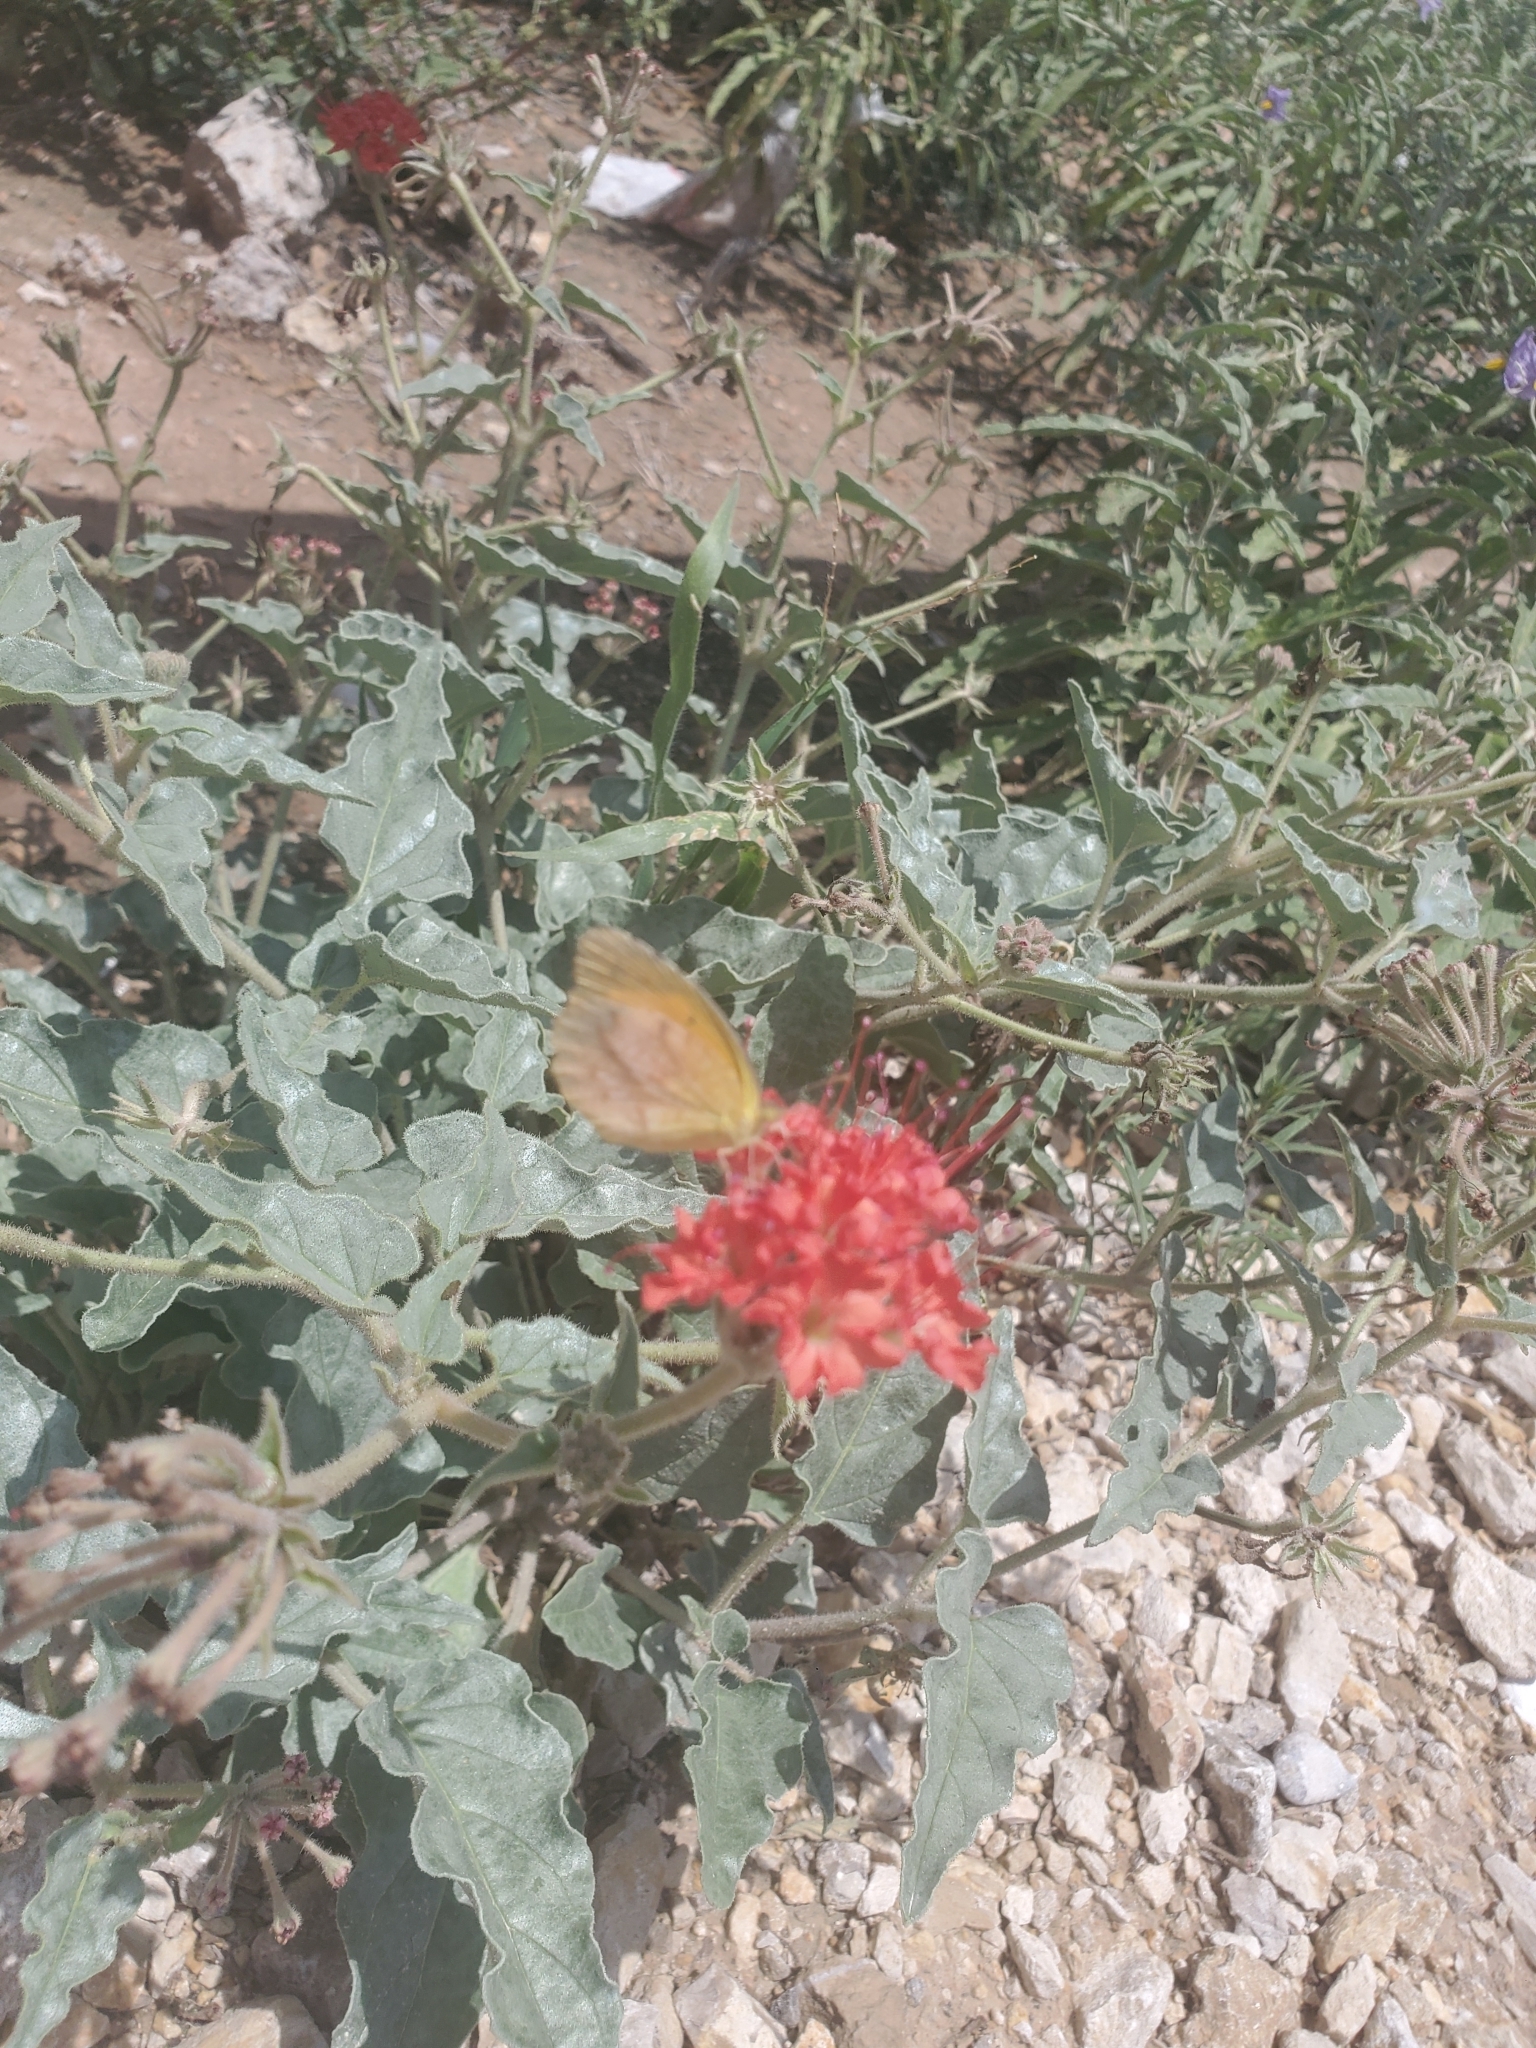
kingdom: Plantae
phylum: Tracheophyta
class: Magnoliopsida
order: Caryophyllales
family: Nyctaginaceae
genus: Nyctaginia
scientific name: Nyctaginia capitata
